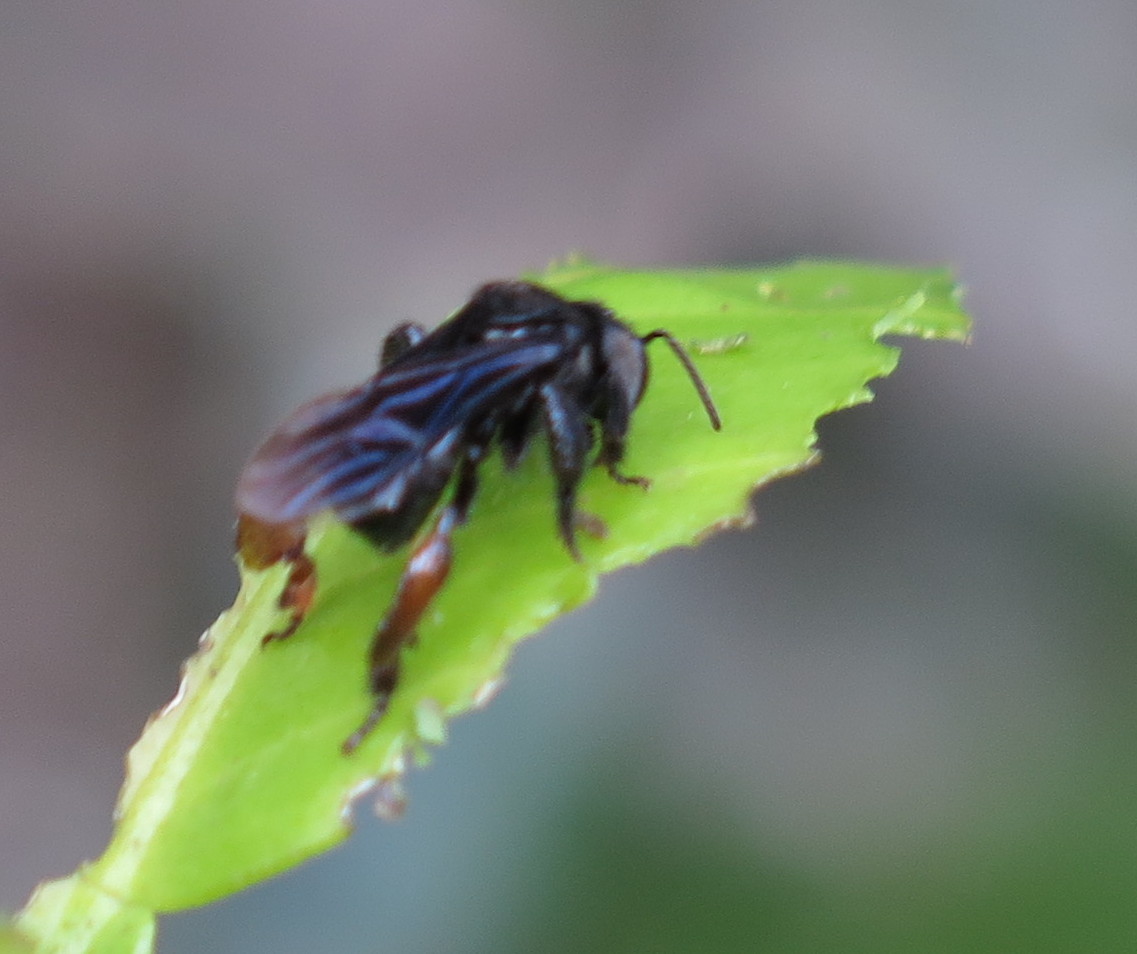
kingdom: Animalia
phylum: Arthropoda
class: Insecta
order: Hymenoptera
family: Apidae
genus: Trigona
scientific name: Trigona spinipes
